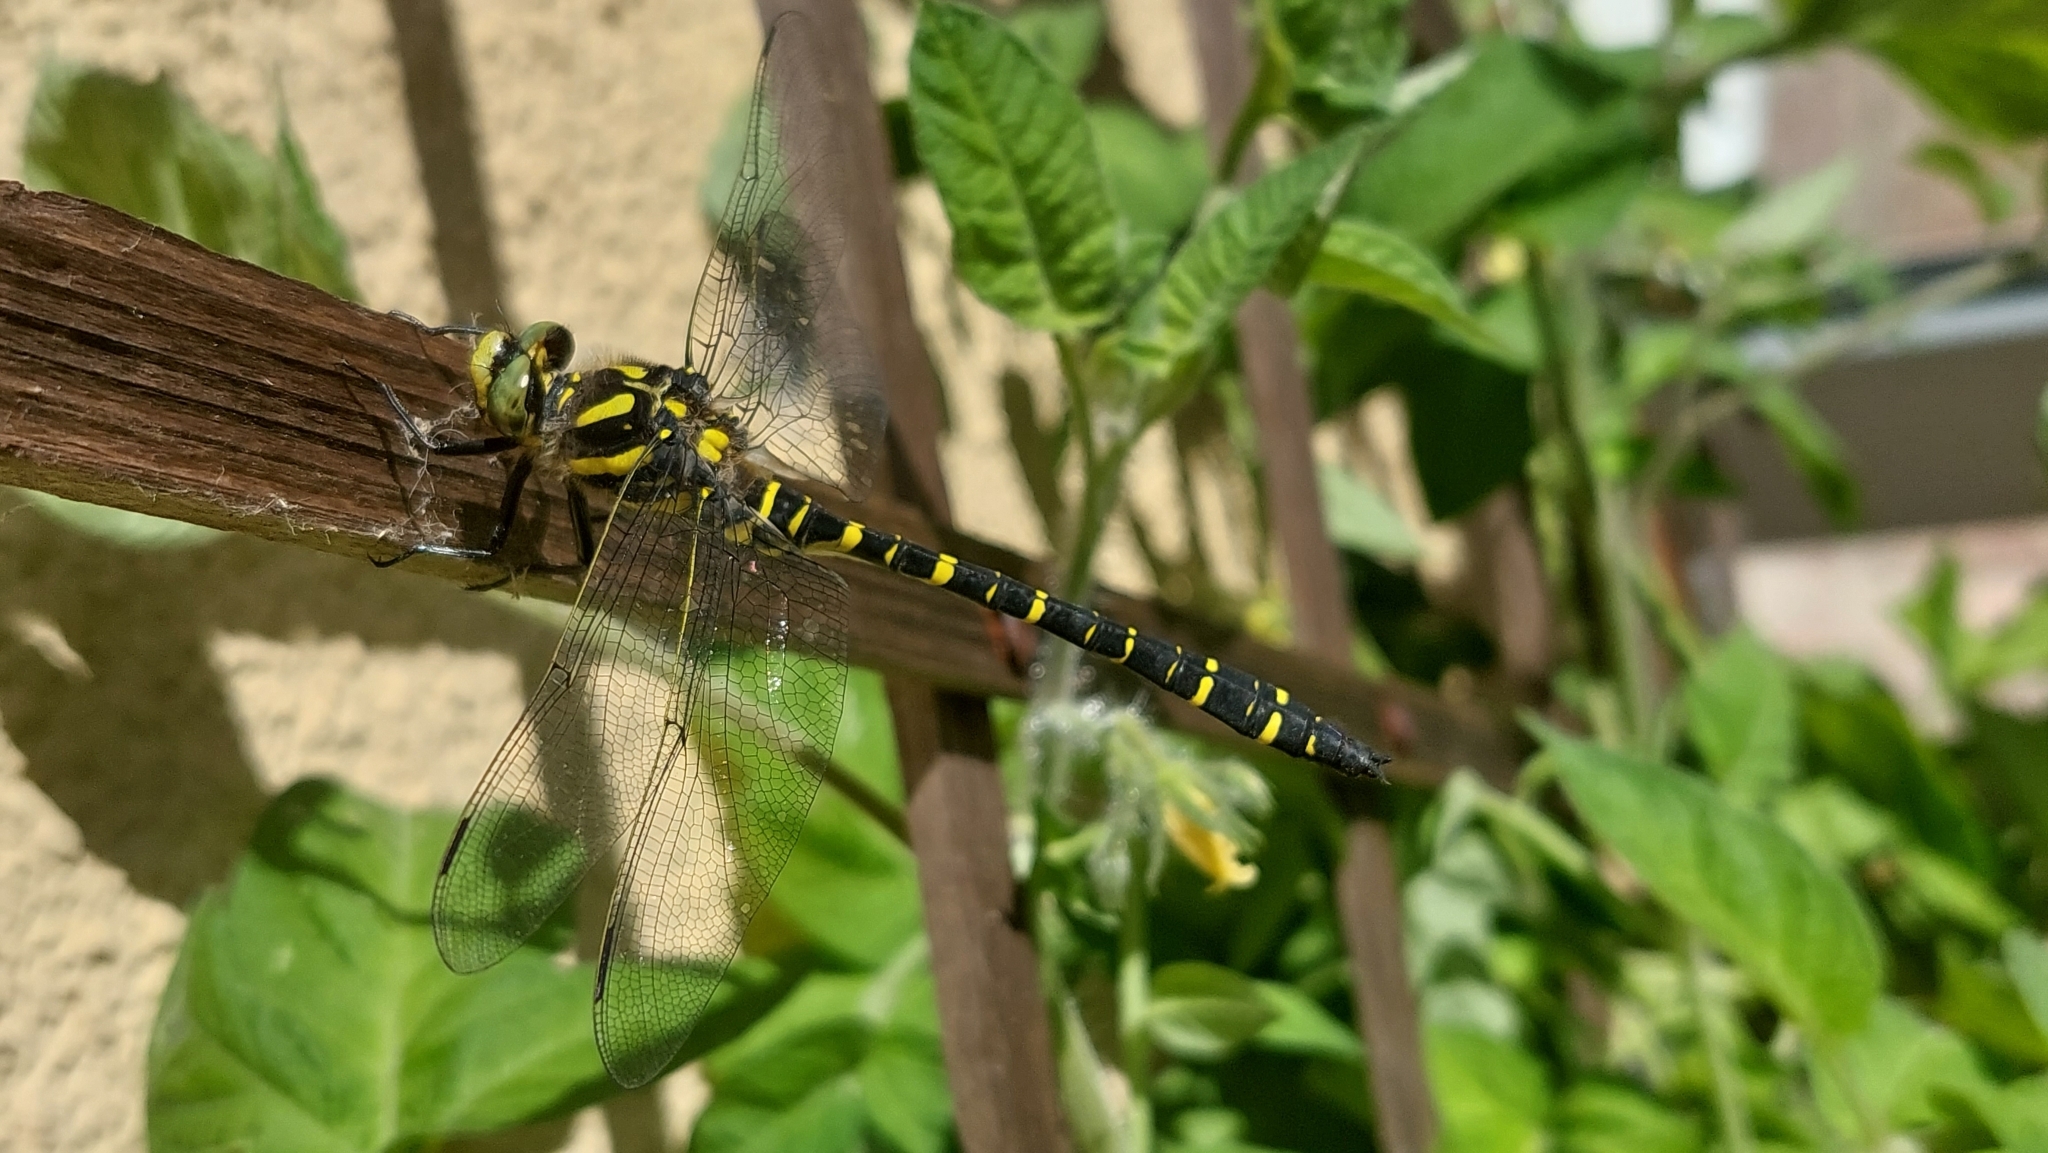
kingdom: Animalia
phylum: Arthropoda
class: Insecta
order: Odonata
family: Cordulegastridae
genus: Cordulegaster
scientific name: Cordulegaster boltonii
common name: Golden-ringed dragonfly
